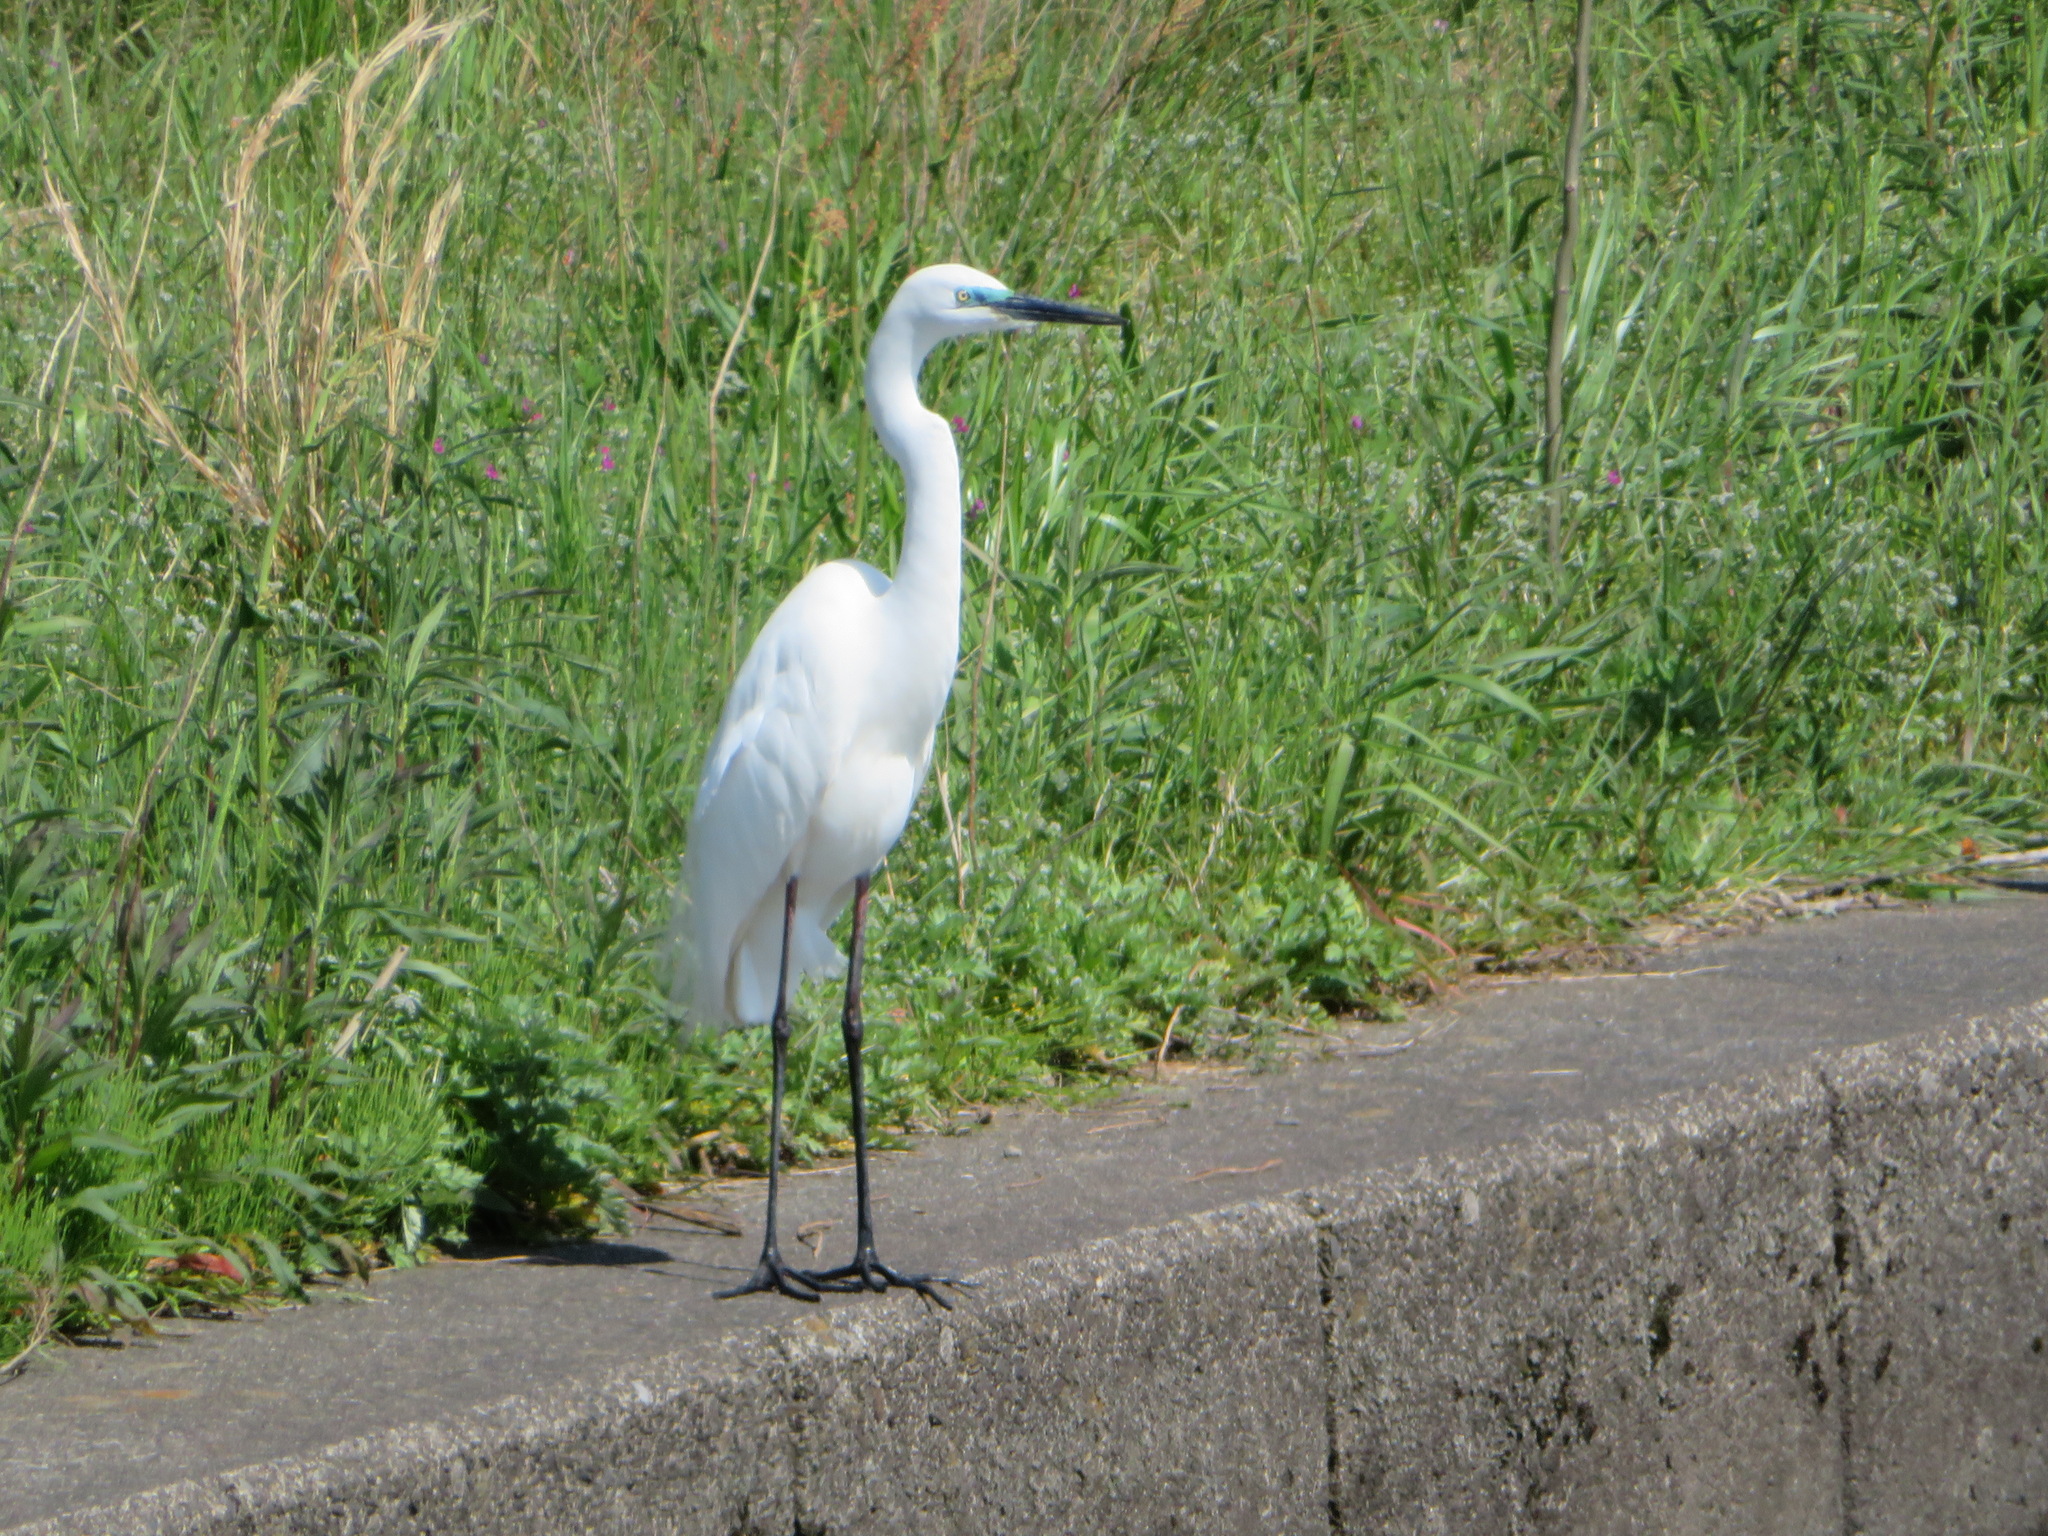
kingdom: Animalia
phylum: Chordata
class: Aves
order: Pelecaniformes
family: Ardeidae
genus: Egretta
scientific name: Egretta intermedia
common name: Intermediate egret
